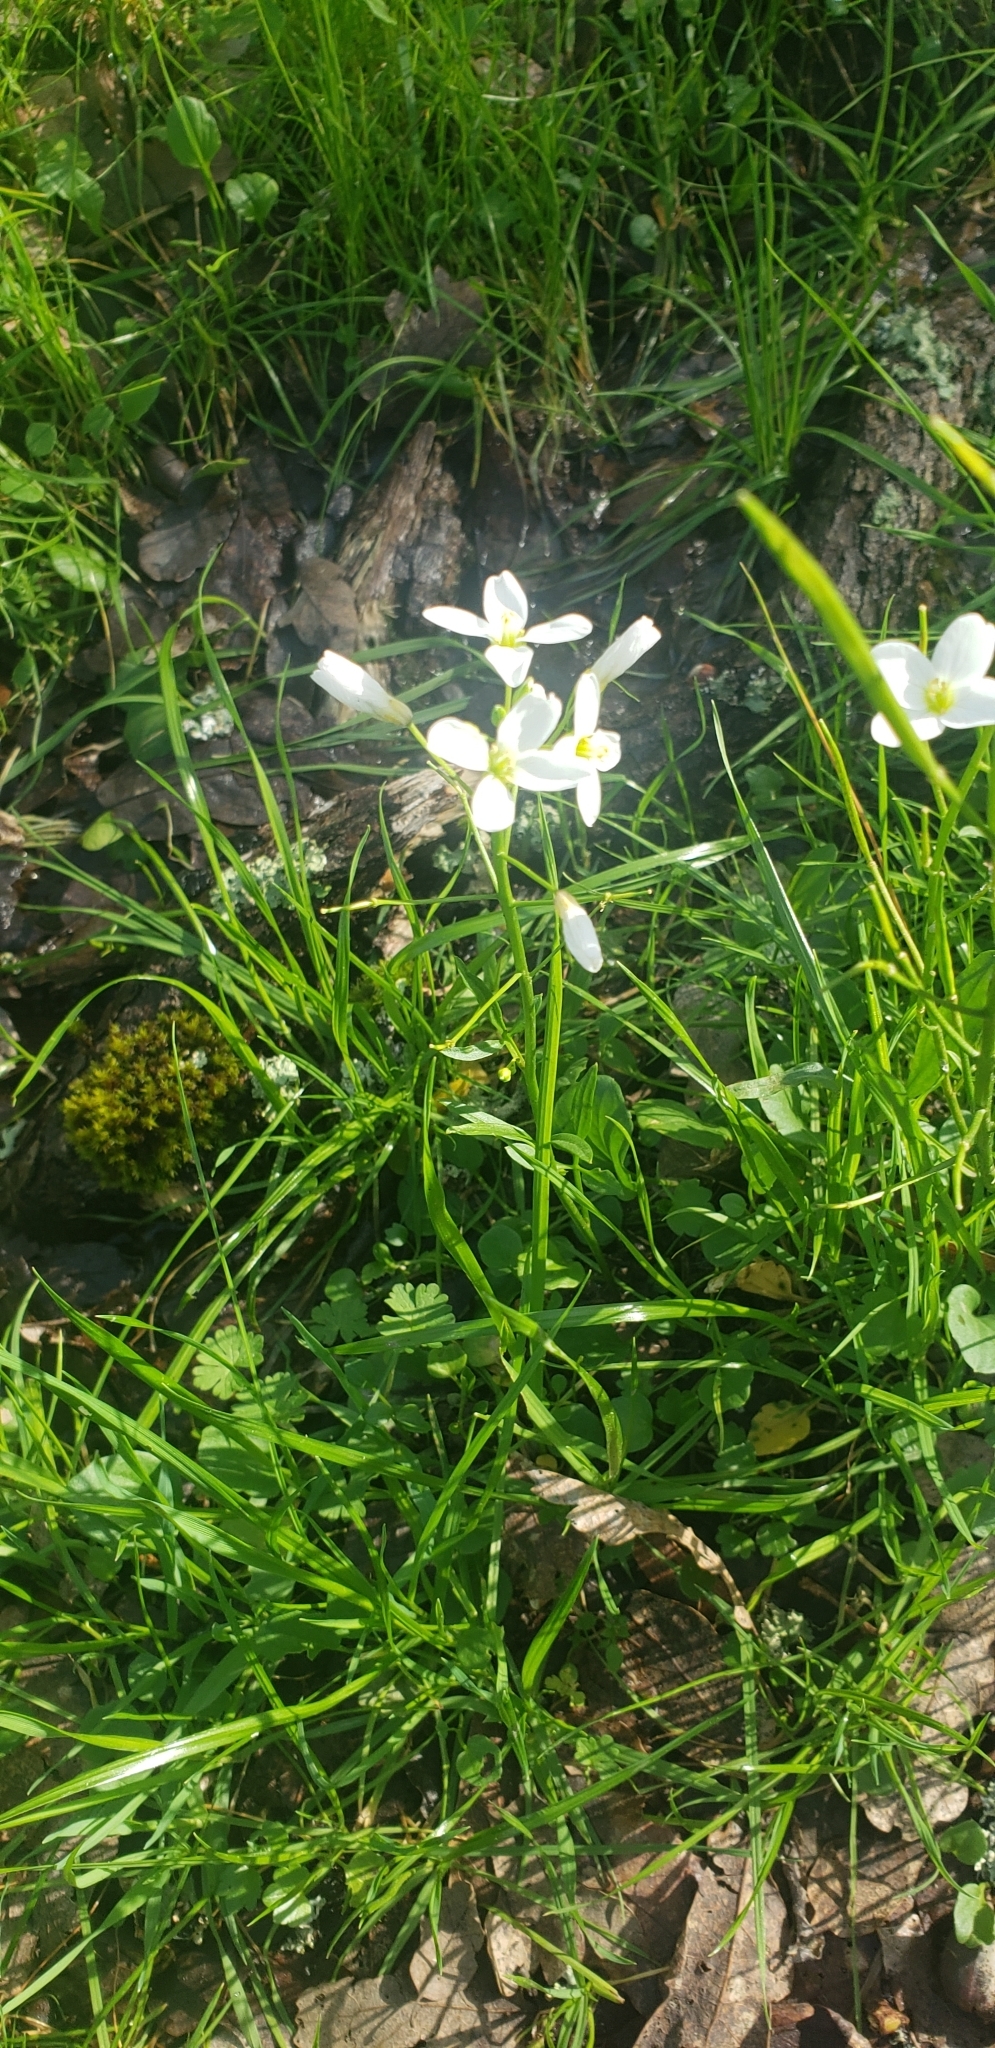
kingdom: Plantae
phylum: Tracheophyta
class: Magnoliopsida
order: Brassicales
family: Brassicaceae
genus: Cardamine
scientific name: Cardamine californica
